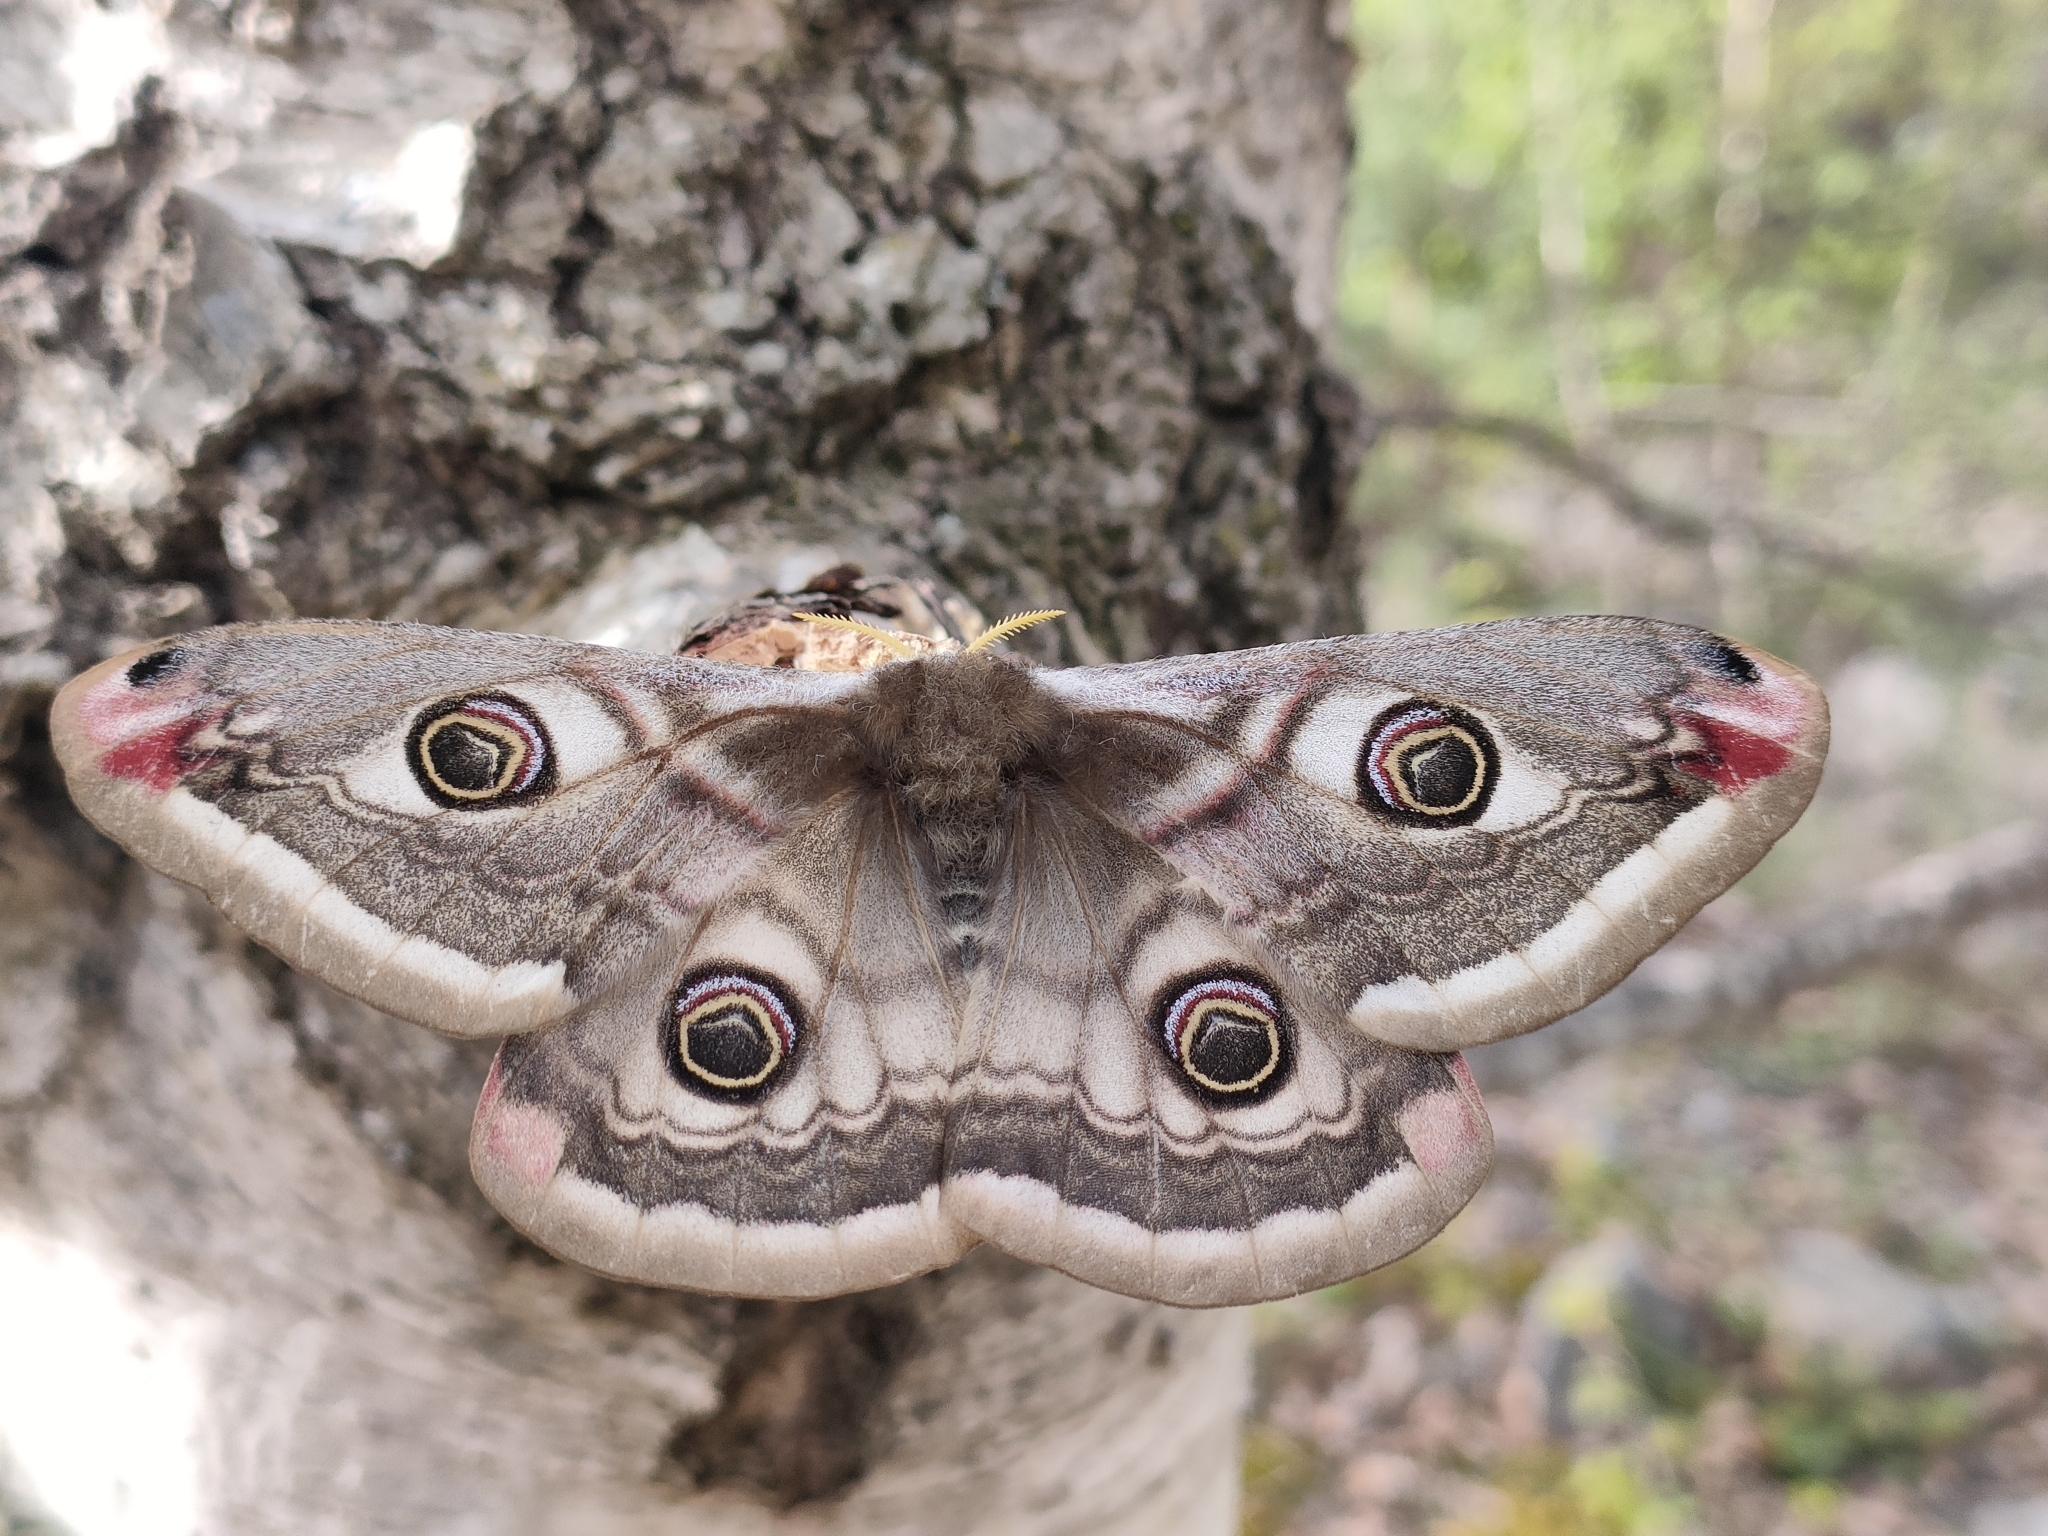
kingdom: Animalia
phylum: Arthropoda
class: Insecta
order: Lepidoptera
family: Saturniidae
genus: Saturnia
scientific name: Saturnia pavonia
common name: Emperor moth
